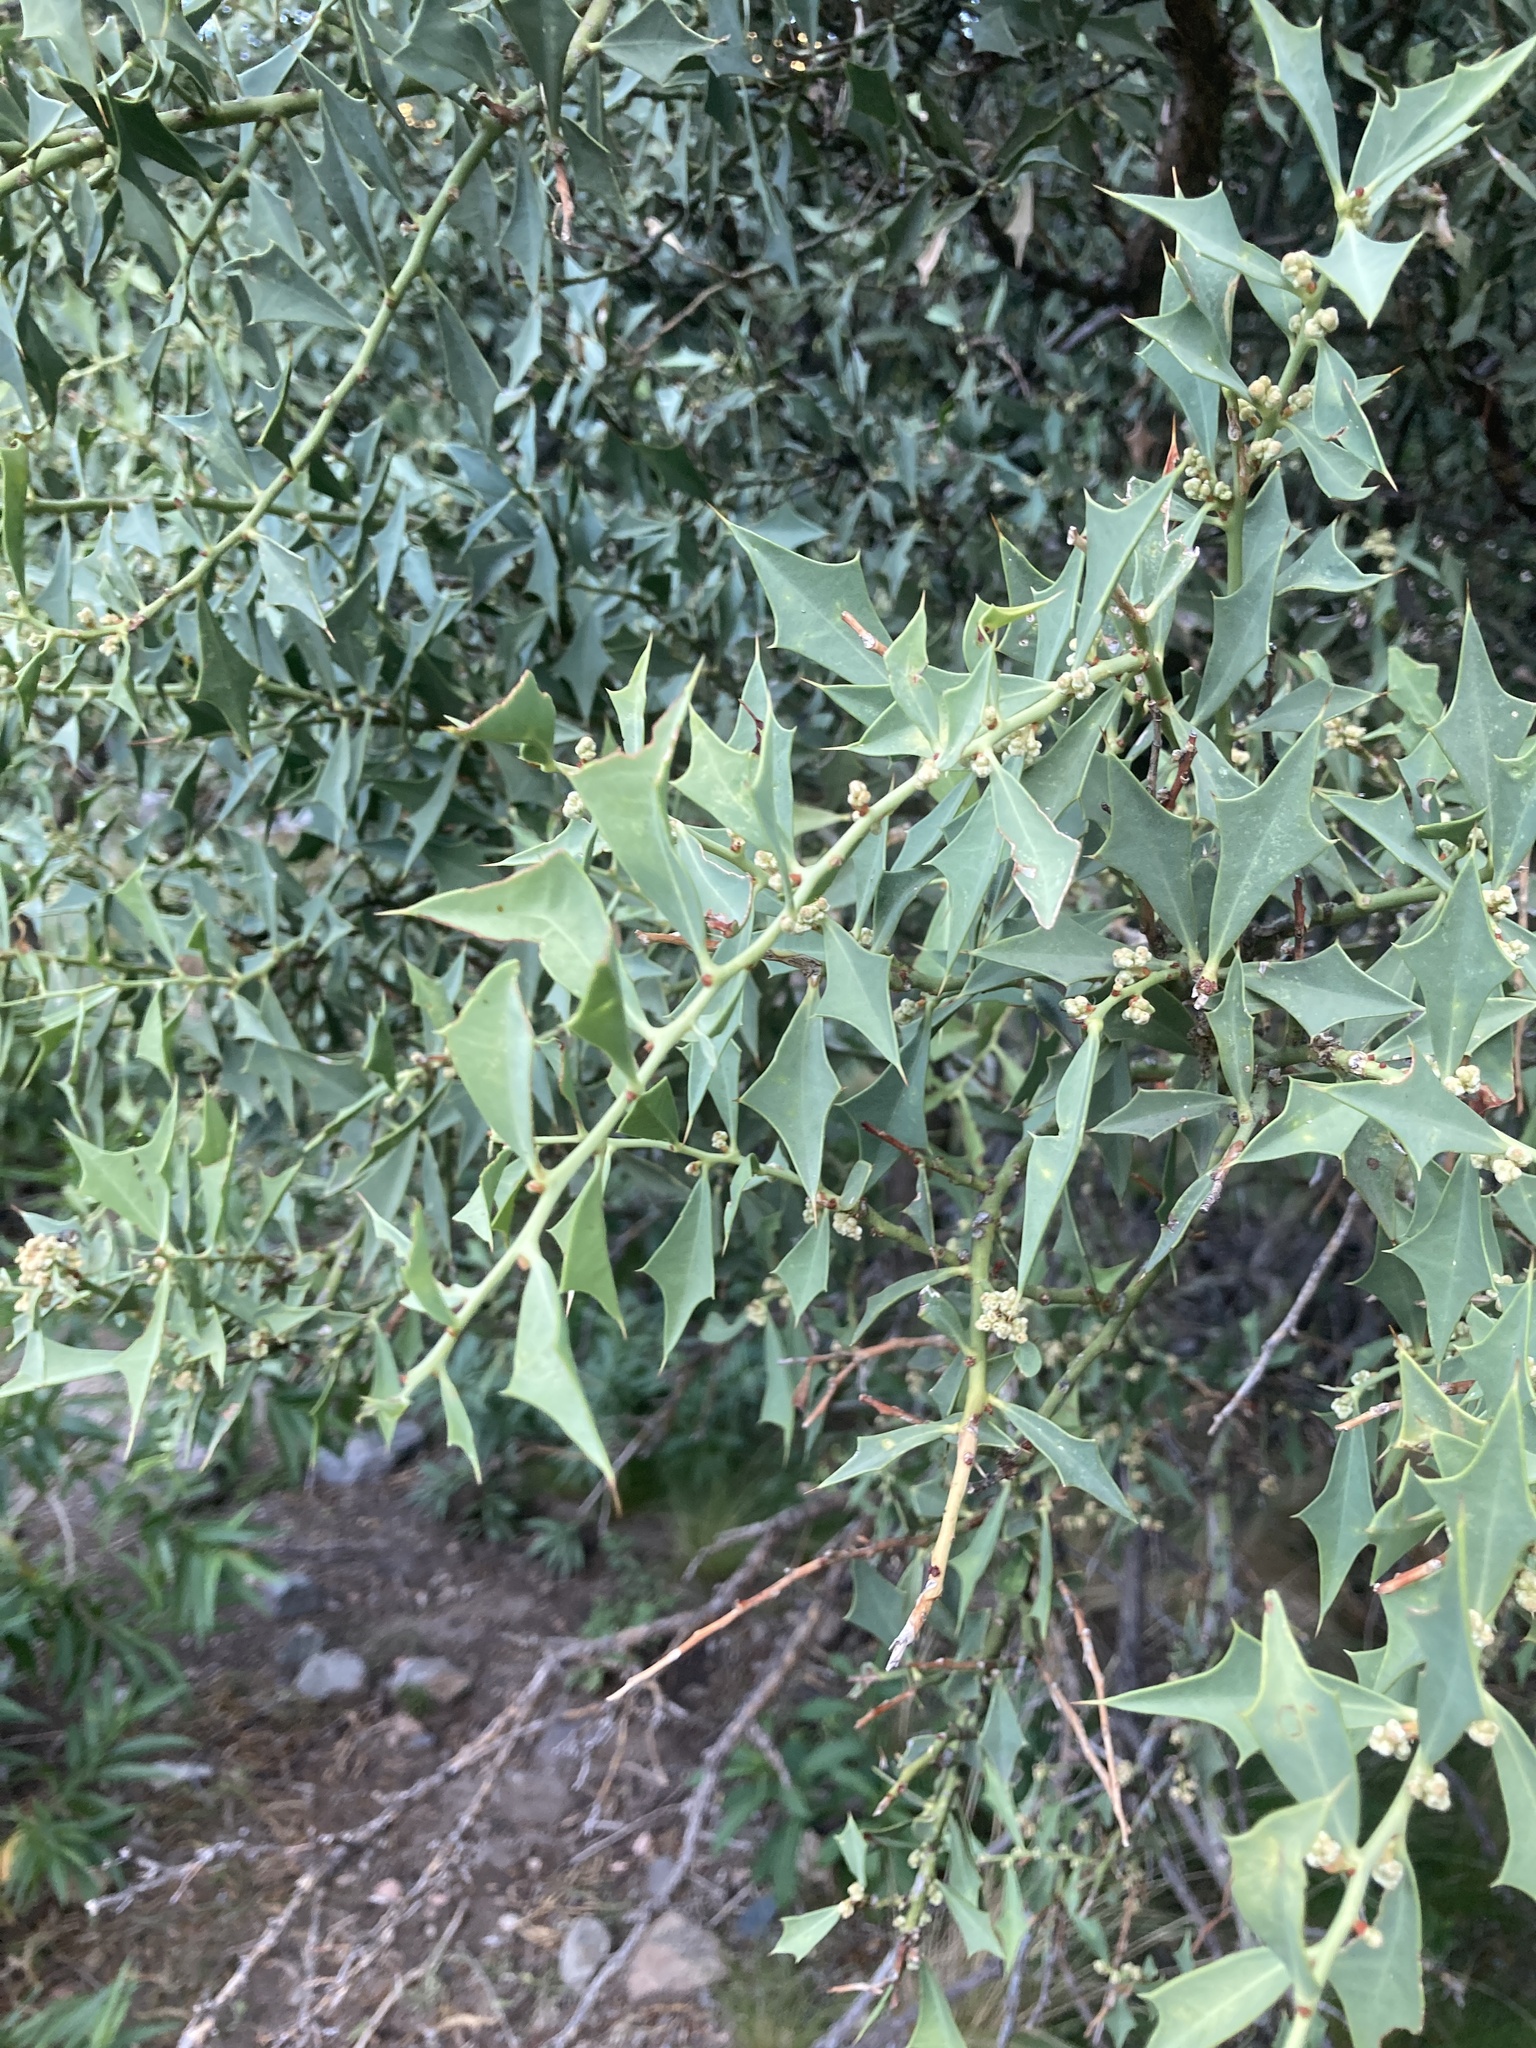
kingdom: Plantae
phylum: Tracheophyta
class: Magnoliopsida
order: Santalales
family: Cervantesiaceae
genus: Jodina
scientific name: Jodina rhombifolia
